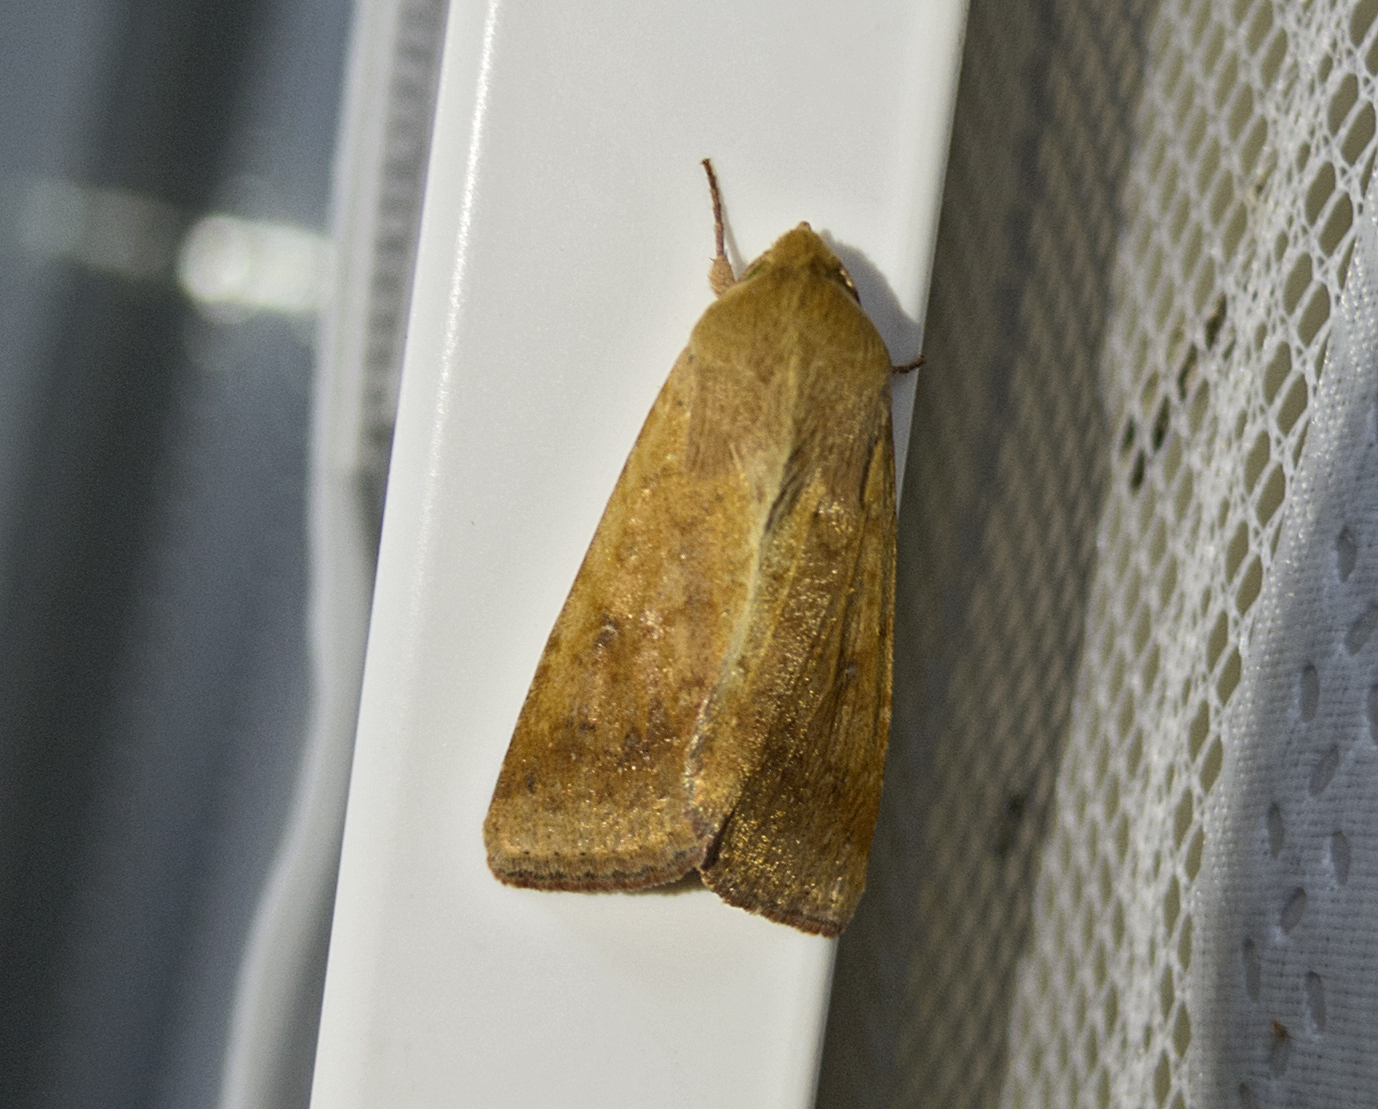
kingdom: Animalia
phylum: Arthropoda
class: Insecta
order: Lepidoptera
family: Noctuidae
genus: Helicoverpa
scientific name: Helicoverpa armigera
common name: Cotton bollworm
